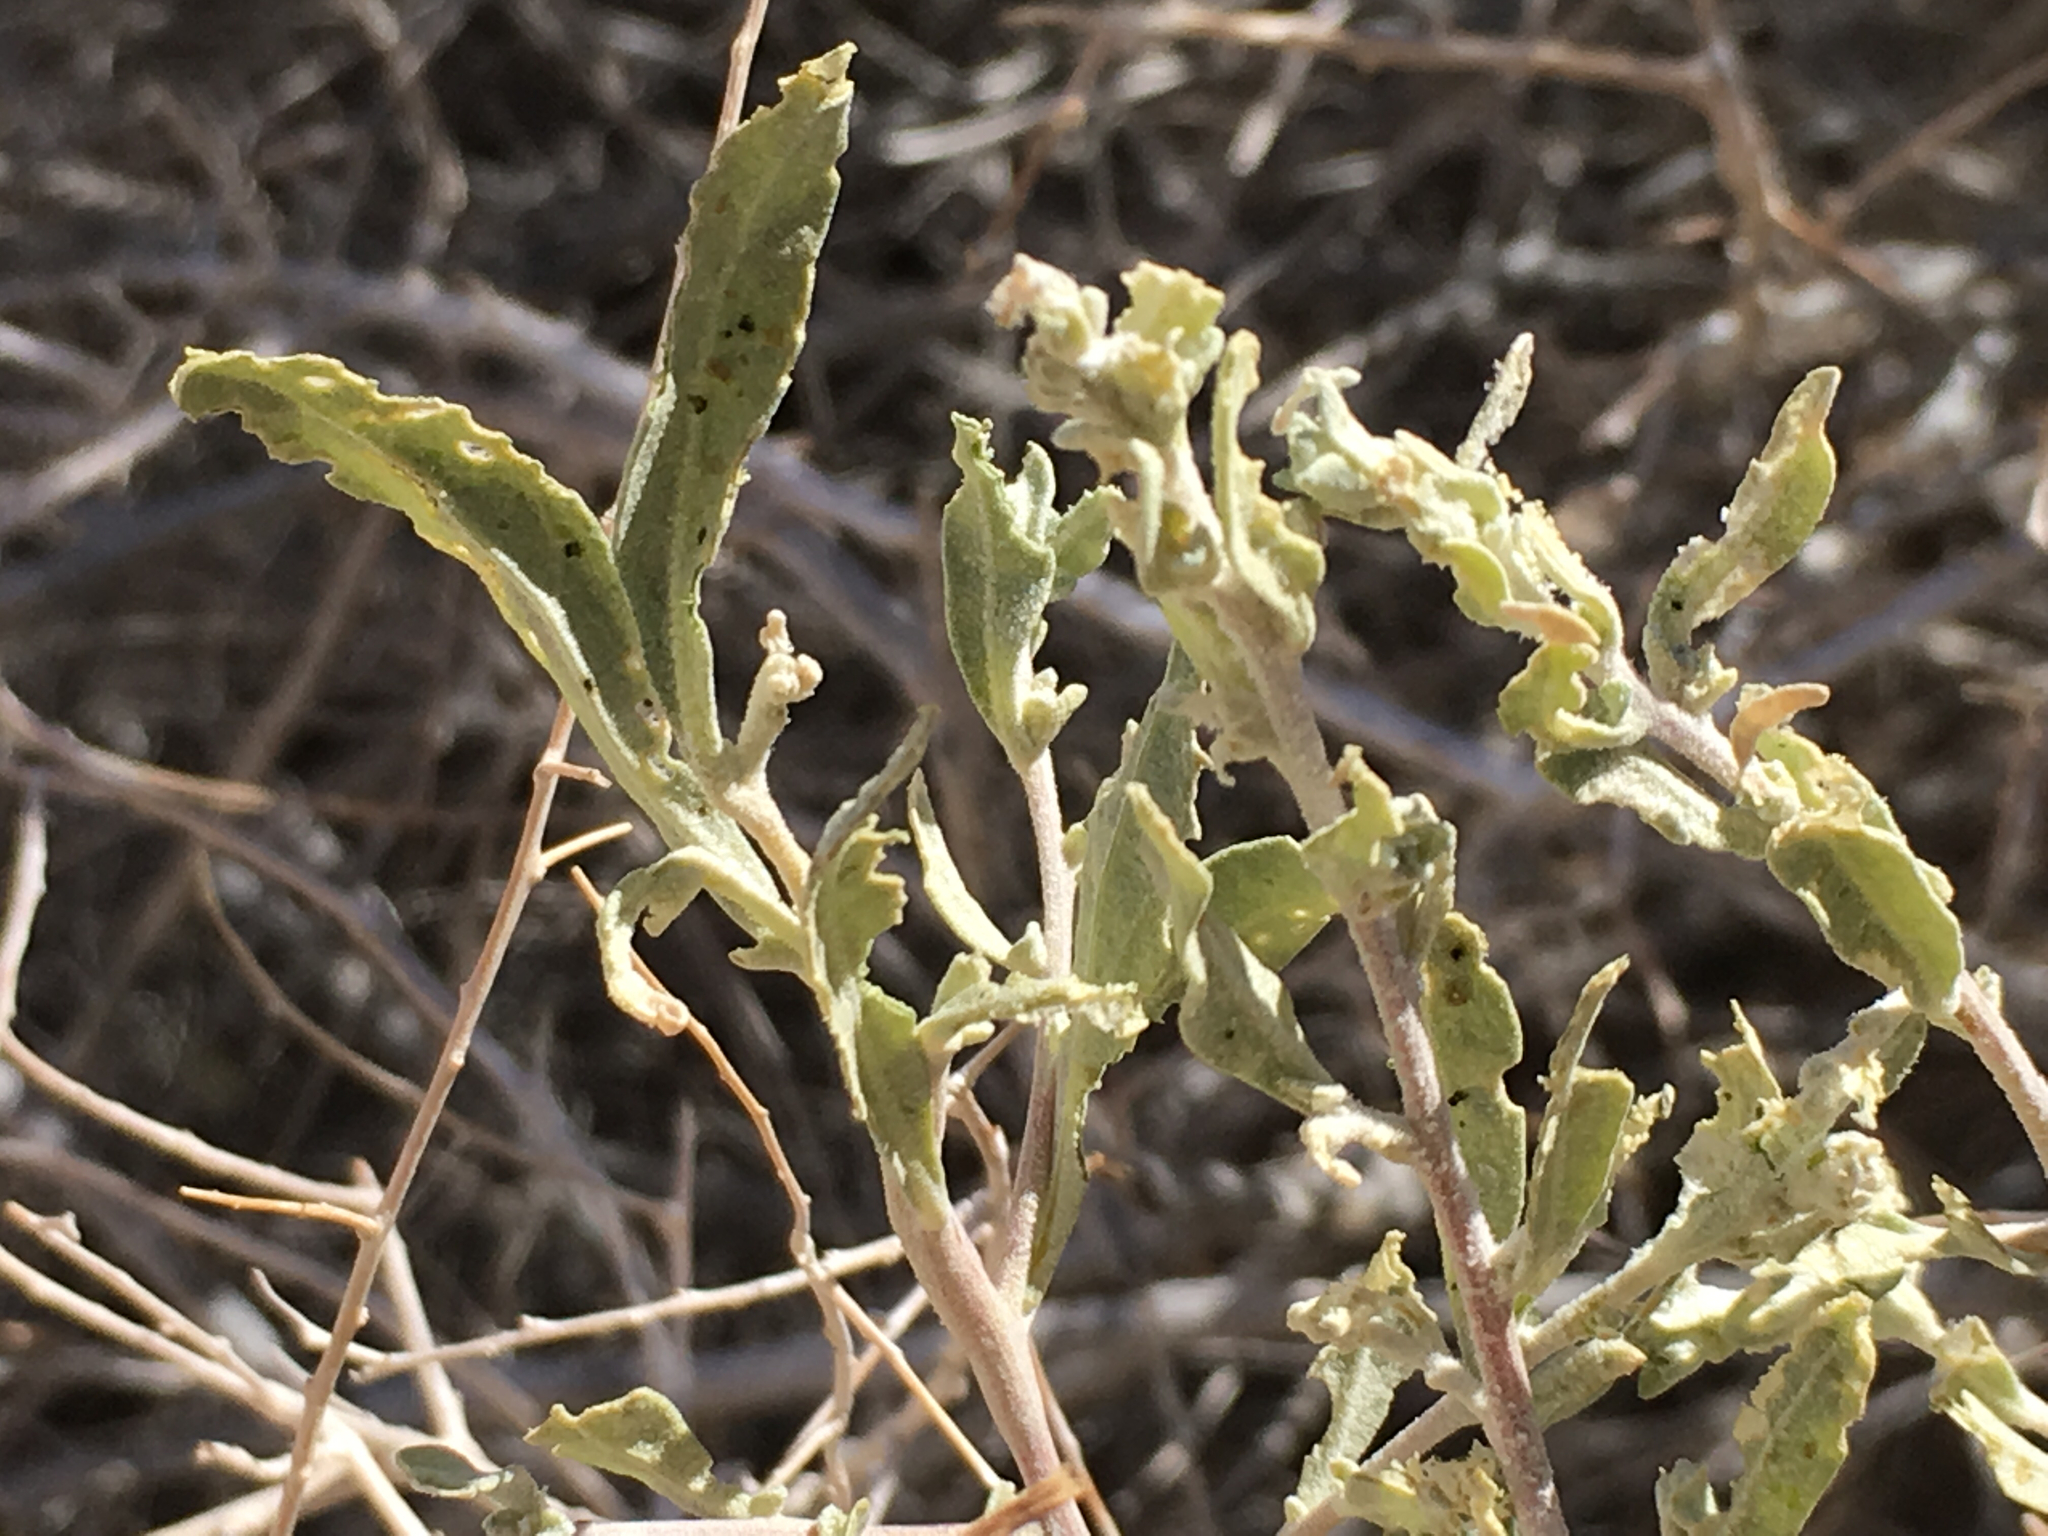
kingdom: Plantae
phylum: Tracheophyta
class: Magnoliopsida
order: Caryophyllales
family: Amaranthaceae
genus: Atriplex
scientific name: Atriplex canescens
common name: Four-wing saltbush
